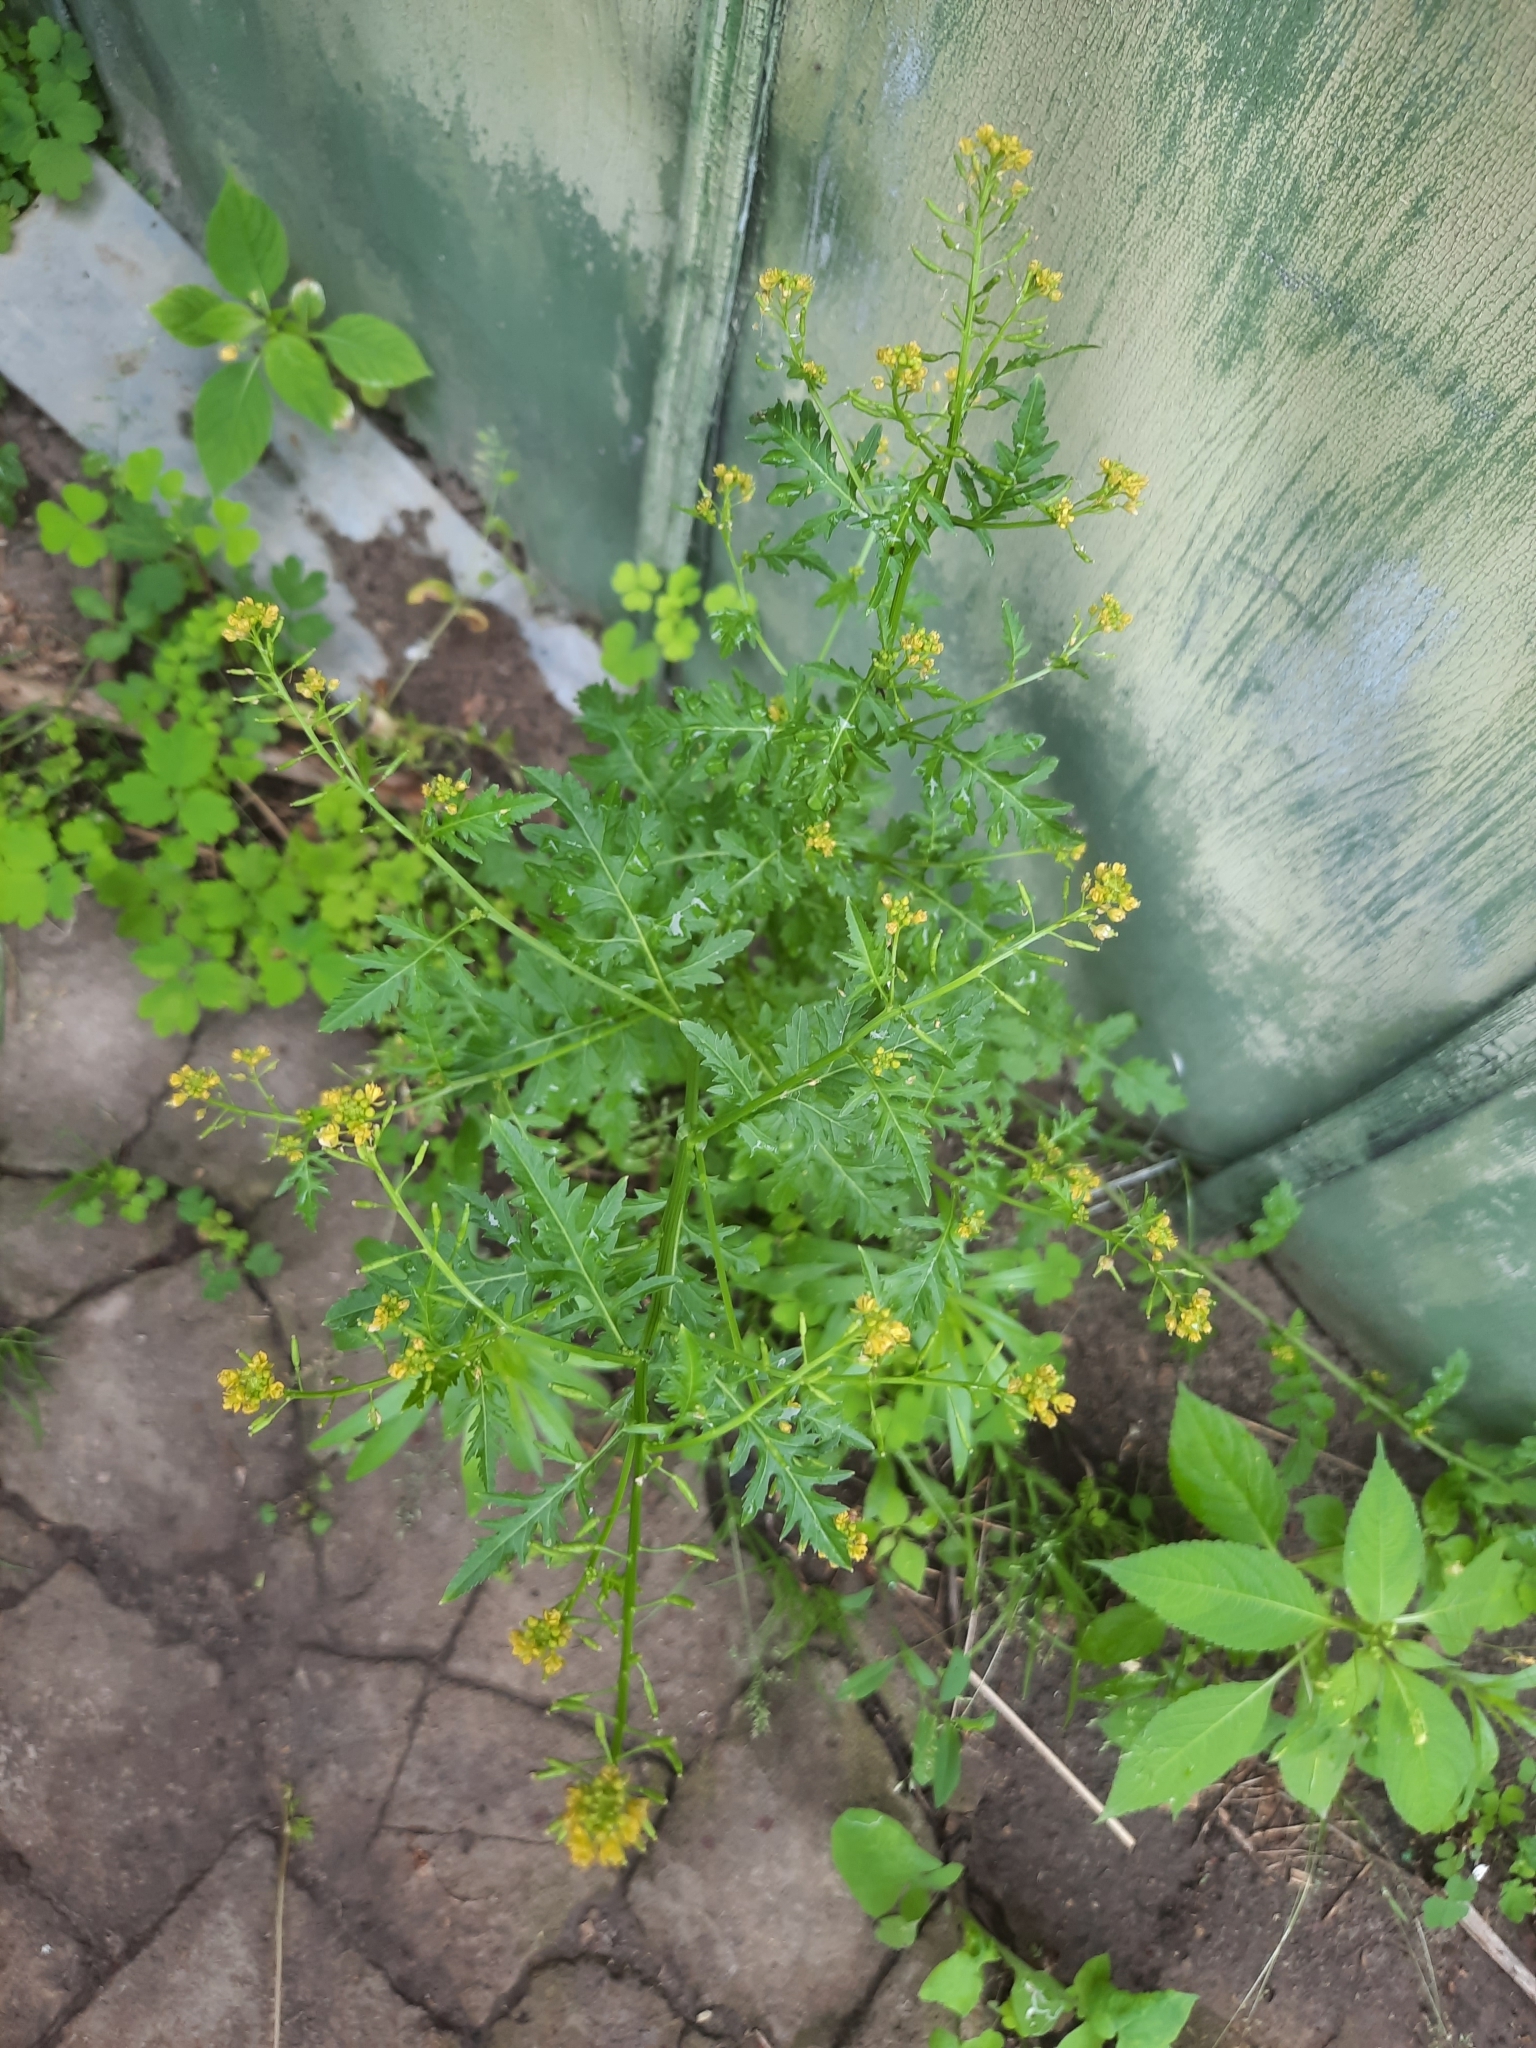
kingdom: Plantae
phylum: Tracheophyta
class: Magnoliopsida
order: Brassicales
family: Brassicaceae
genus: Rorippa
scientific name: Rorippa palustris
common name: Marsh yellow-cress
